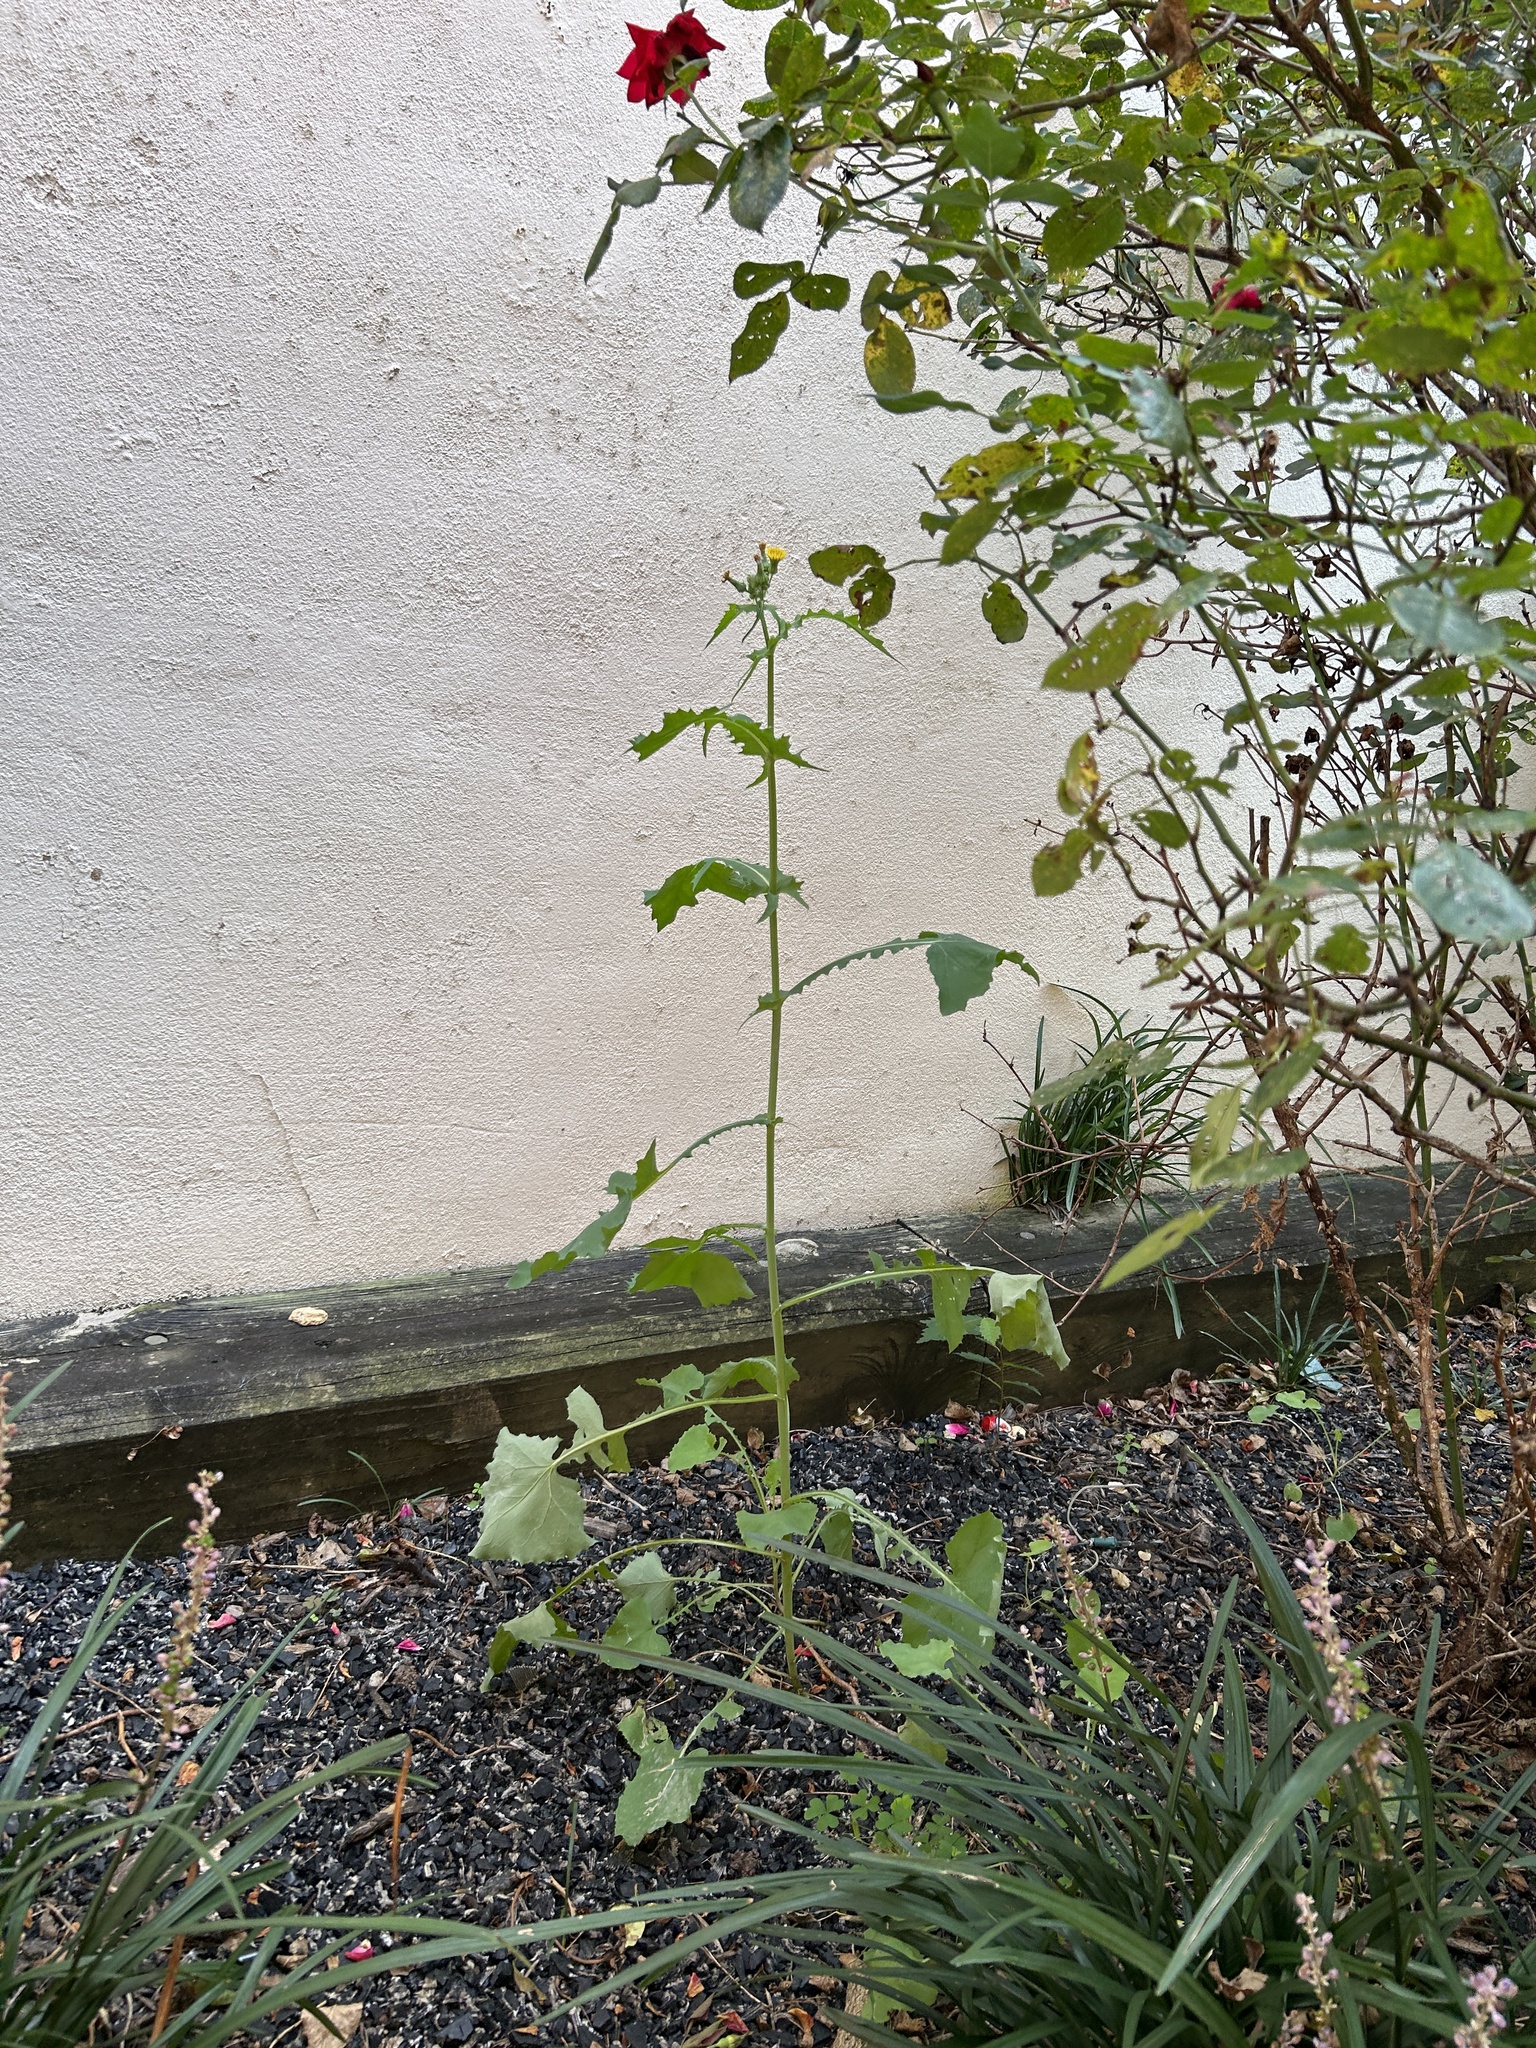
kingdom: Plantae
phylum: Tracheophyta
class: Magnoliopsida
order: Asterales
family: Asteraceae
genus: Sonchus
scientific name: Sonchus oleraceus
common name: Common sowthistle
